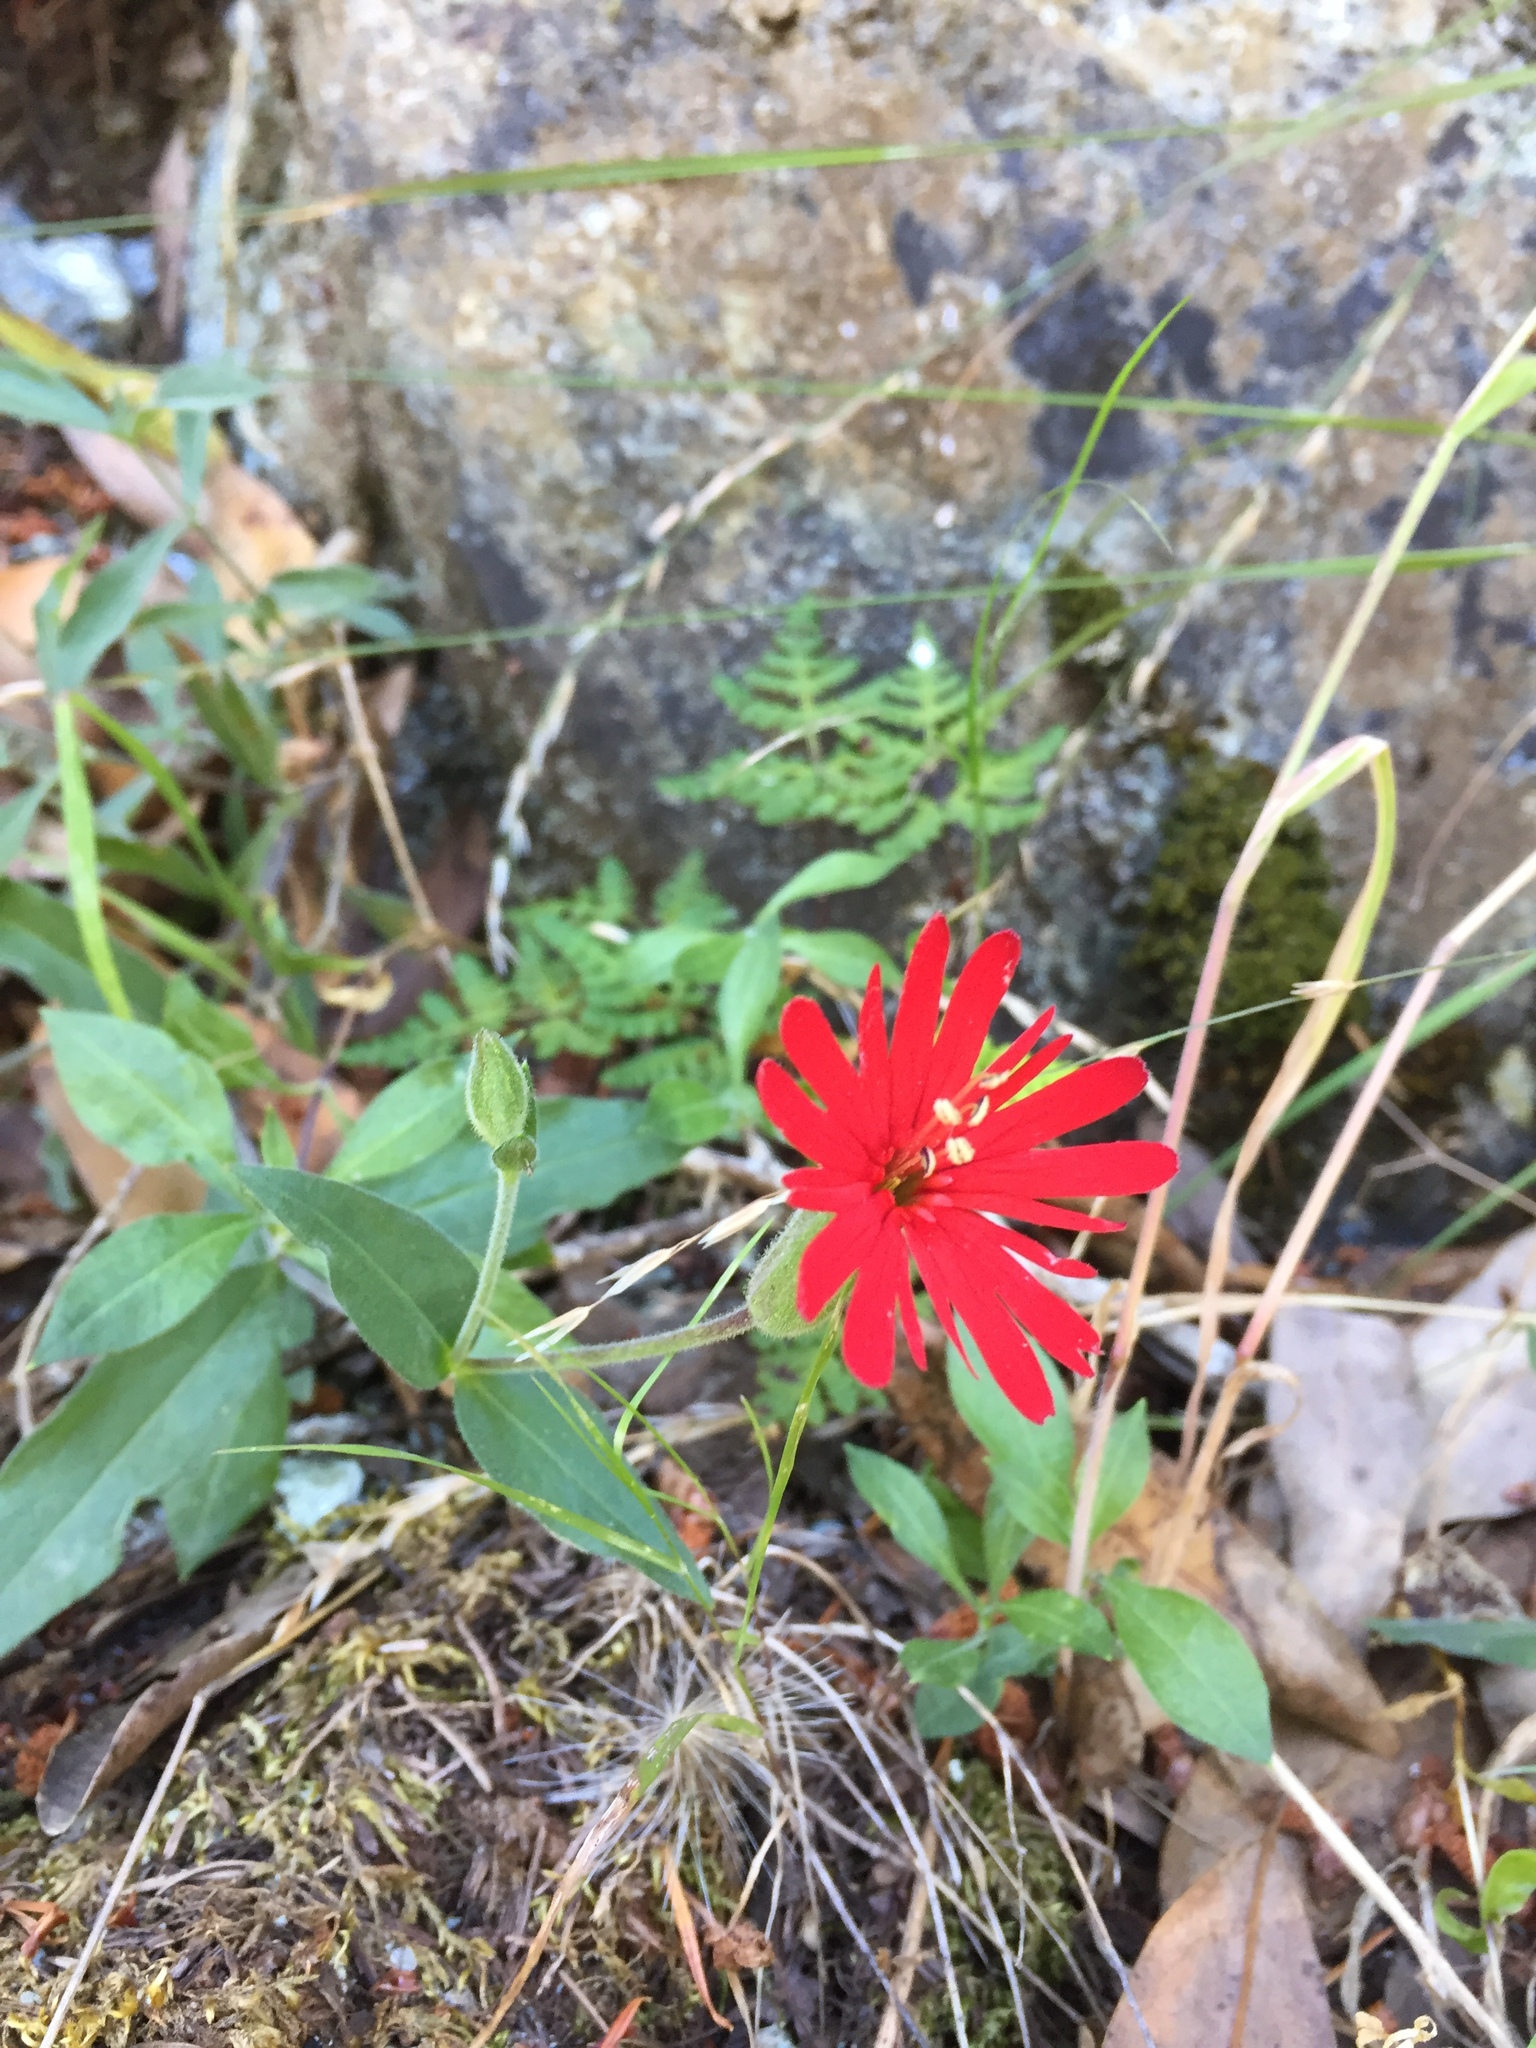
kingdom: Plantae
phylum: Tracheophyta
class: Magnoliopsida
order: Caryophyllales
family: Caryophyllaceae
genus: Silene
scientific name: Silene laciniata
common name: Indian-pink
